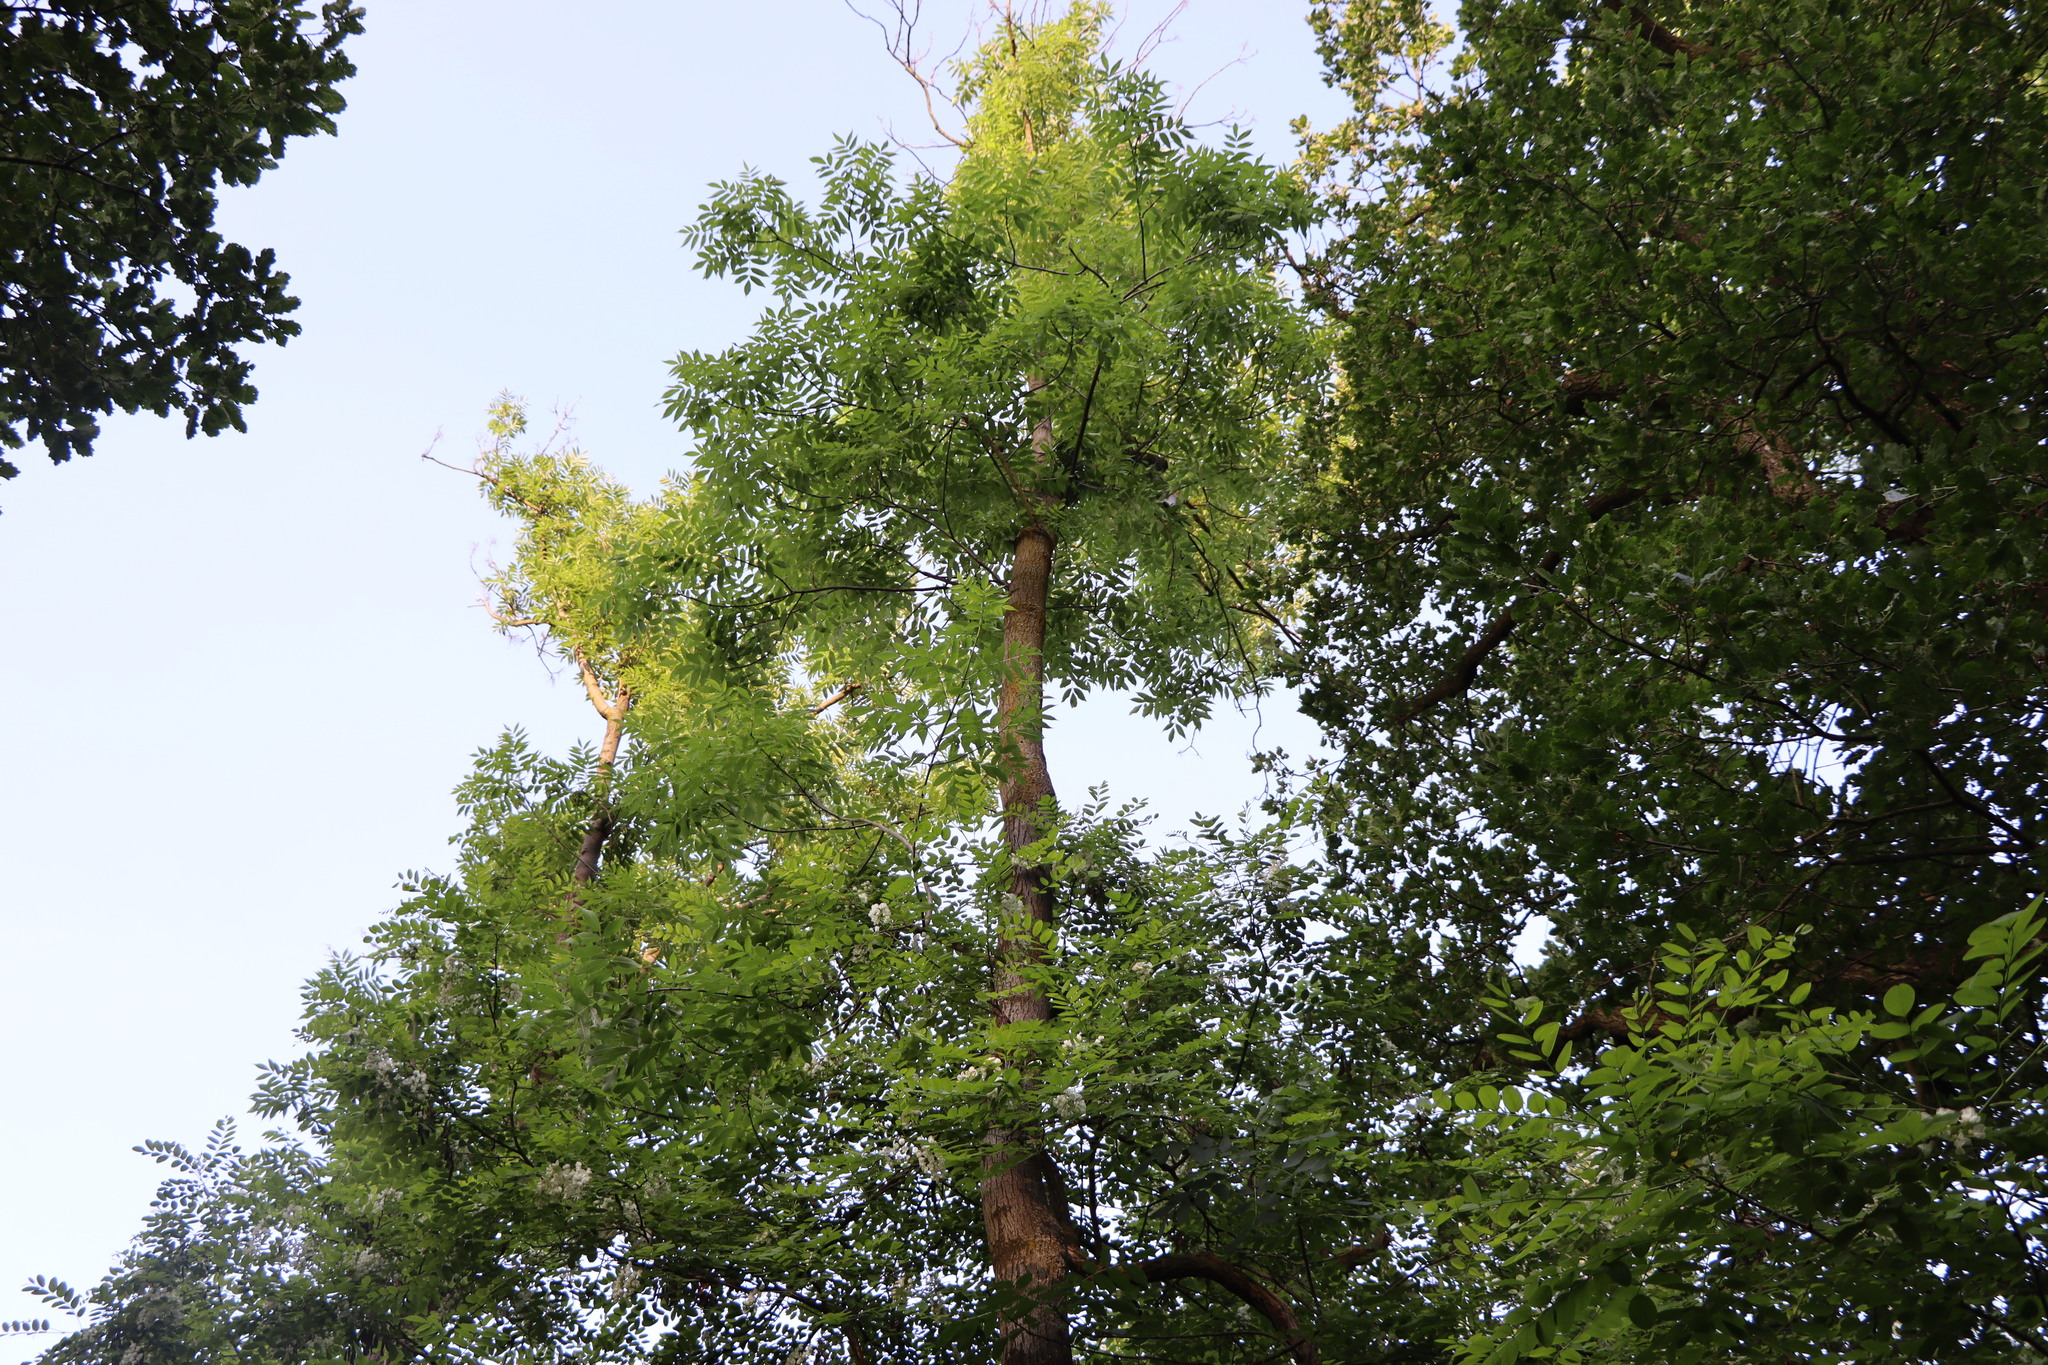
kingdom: Plantae
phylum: Tracheophyta
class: Magnoliopsida
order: Fabales
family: Fabaceae
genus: Robinia
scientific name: Robinia pseudoacacia
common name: Black locust
